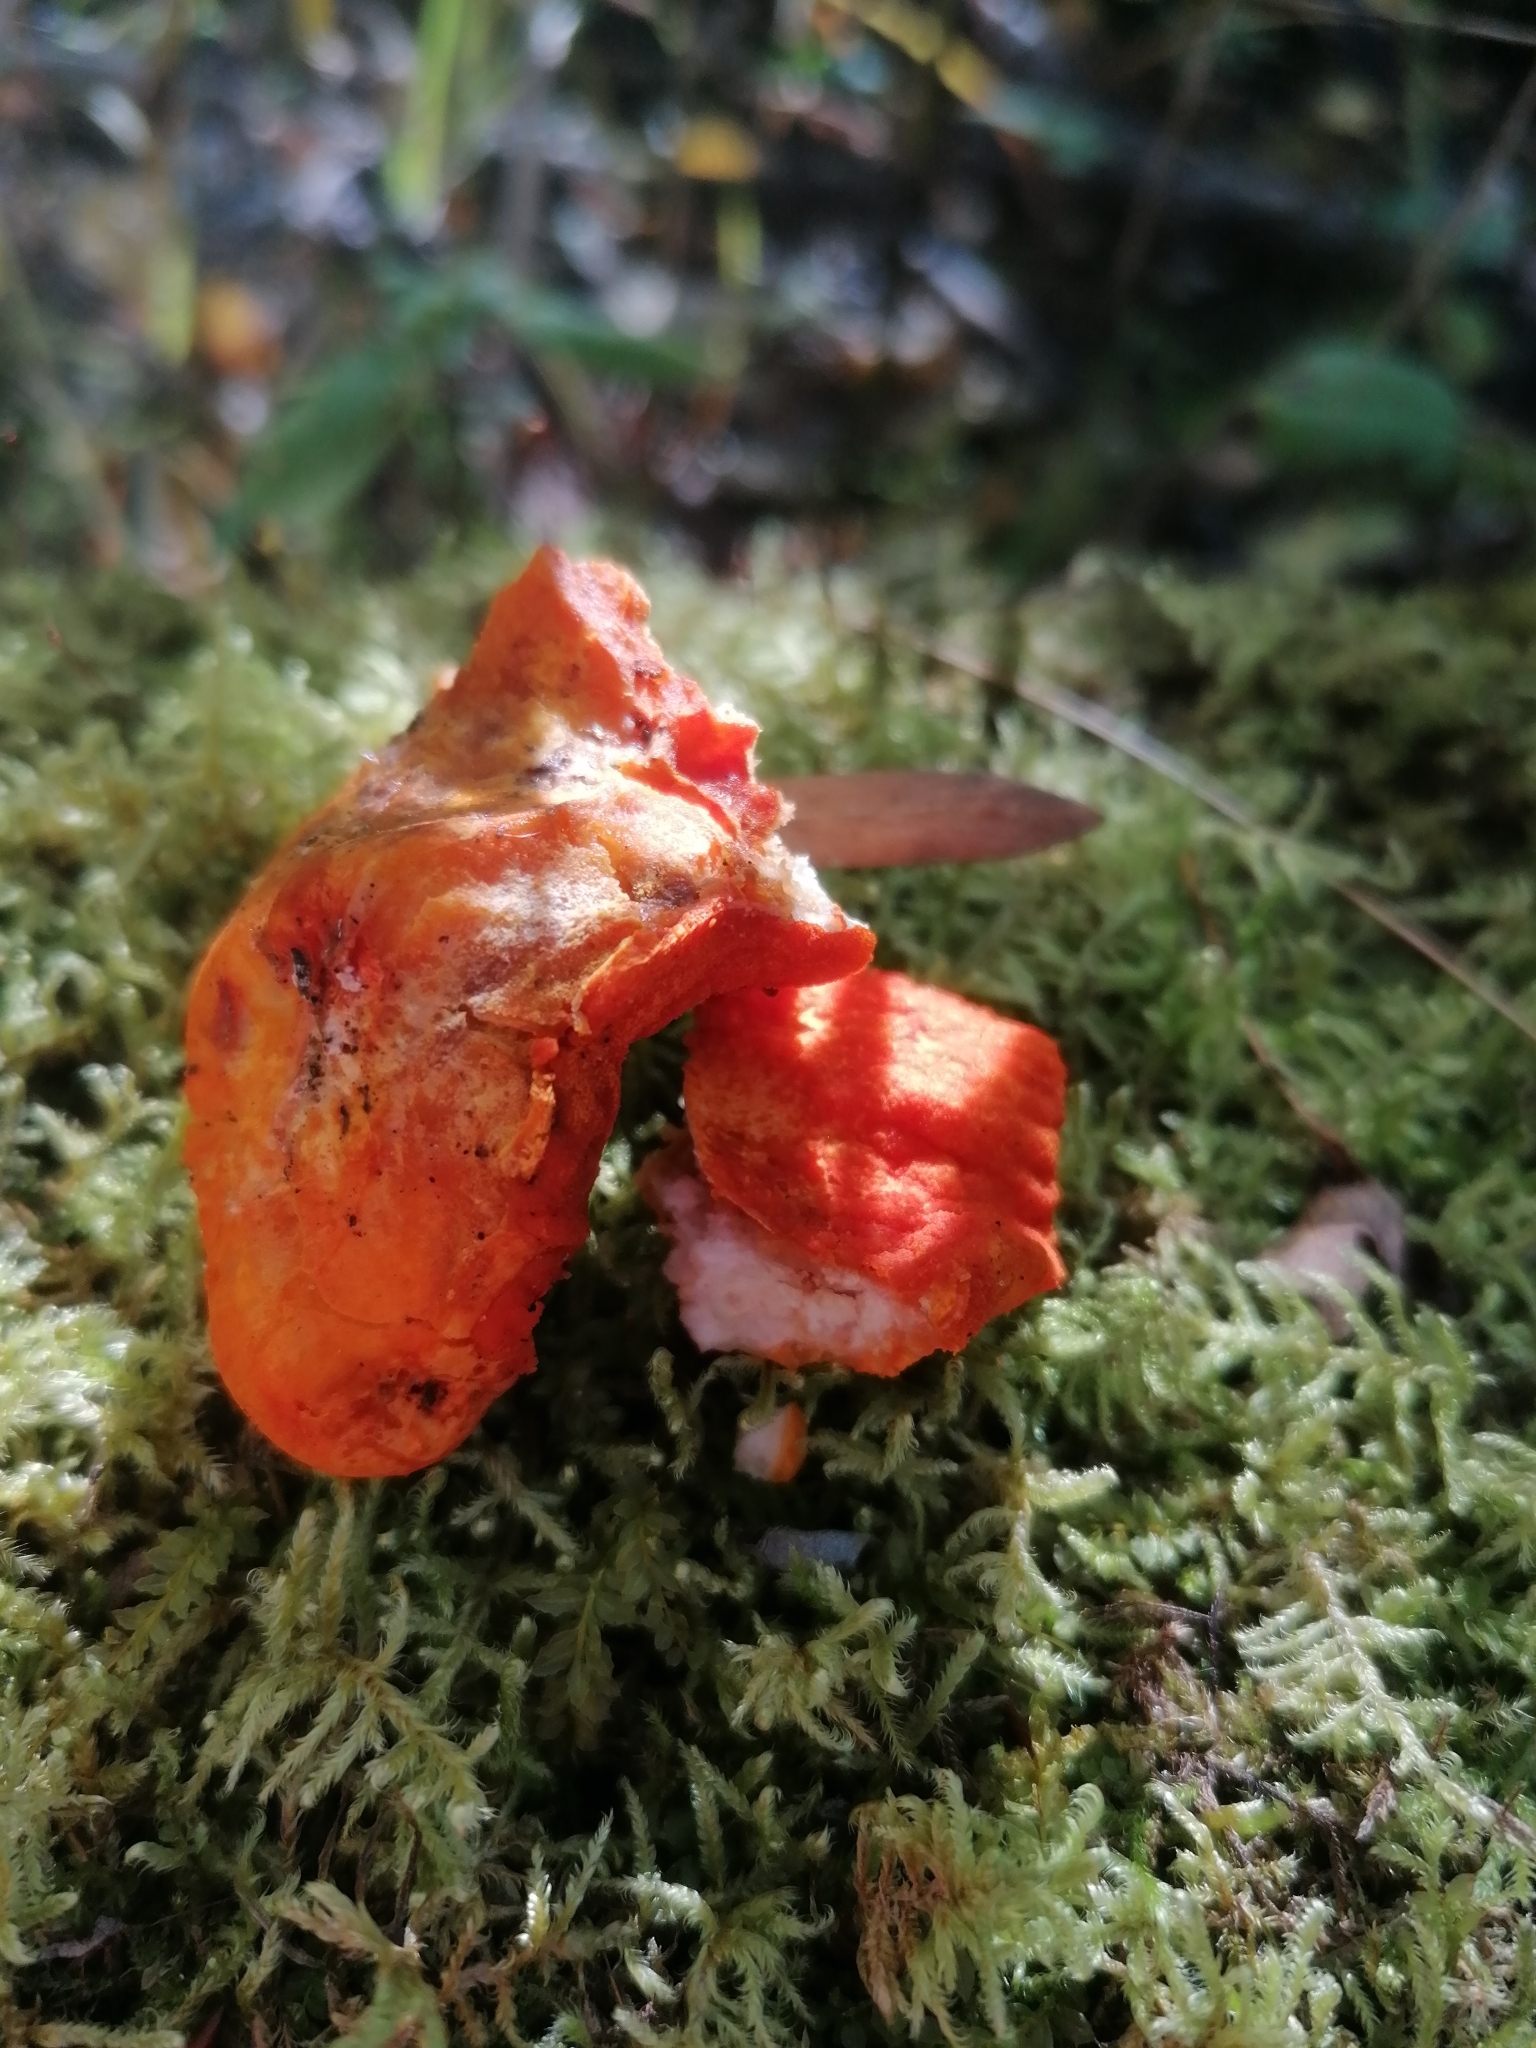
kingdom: Fungi
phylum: Ascomycota
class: Sordariomycetes
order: Hypocreales
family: Hypocreaceae
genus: Hypomyces
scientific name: Hypomyces lactifluorum
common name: Lobster mushroom
